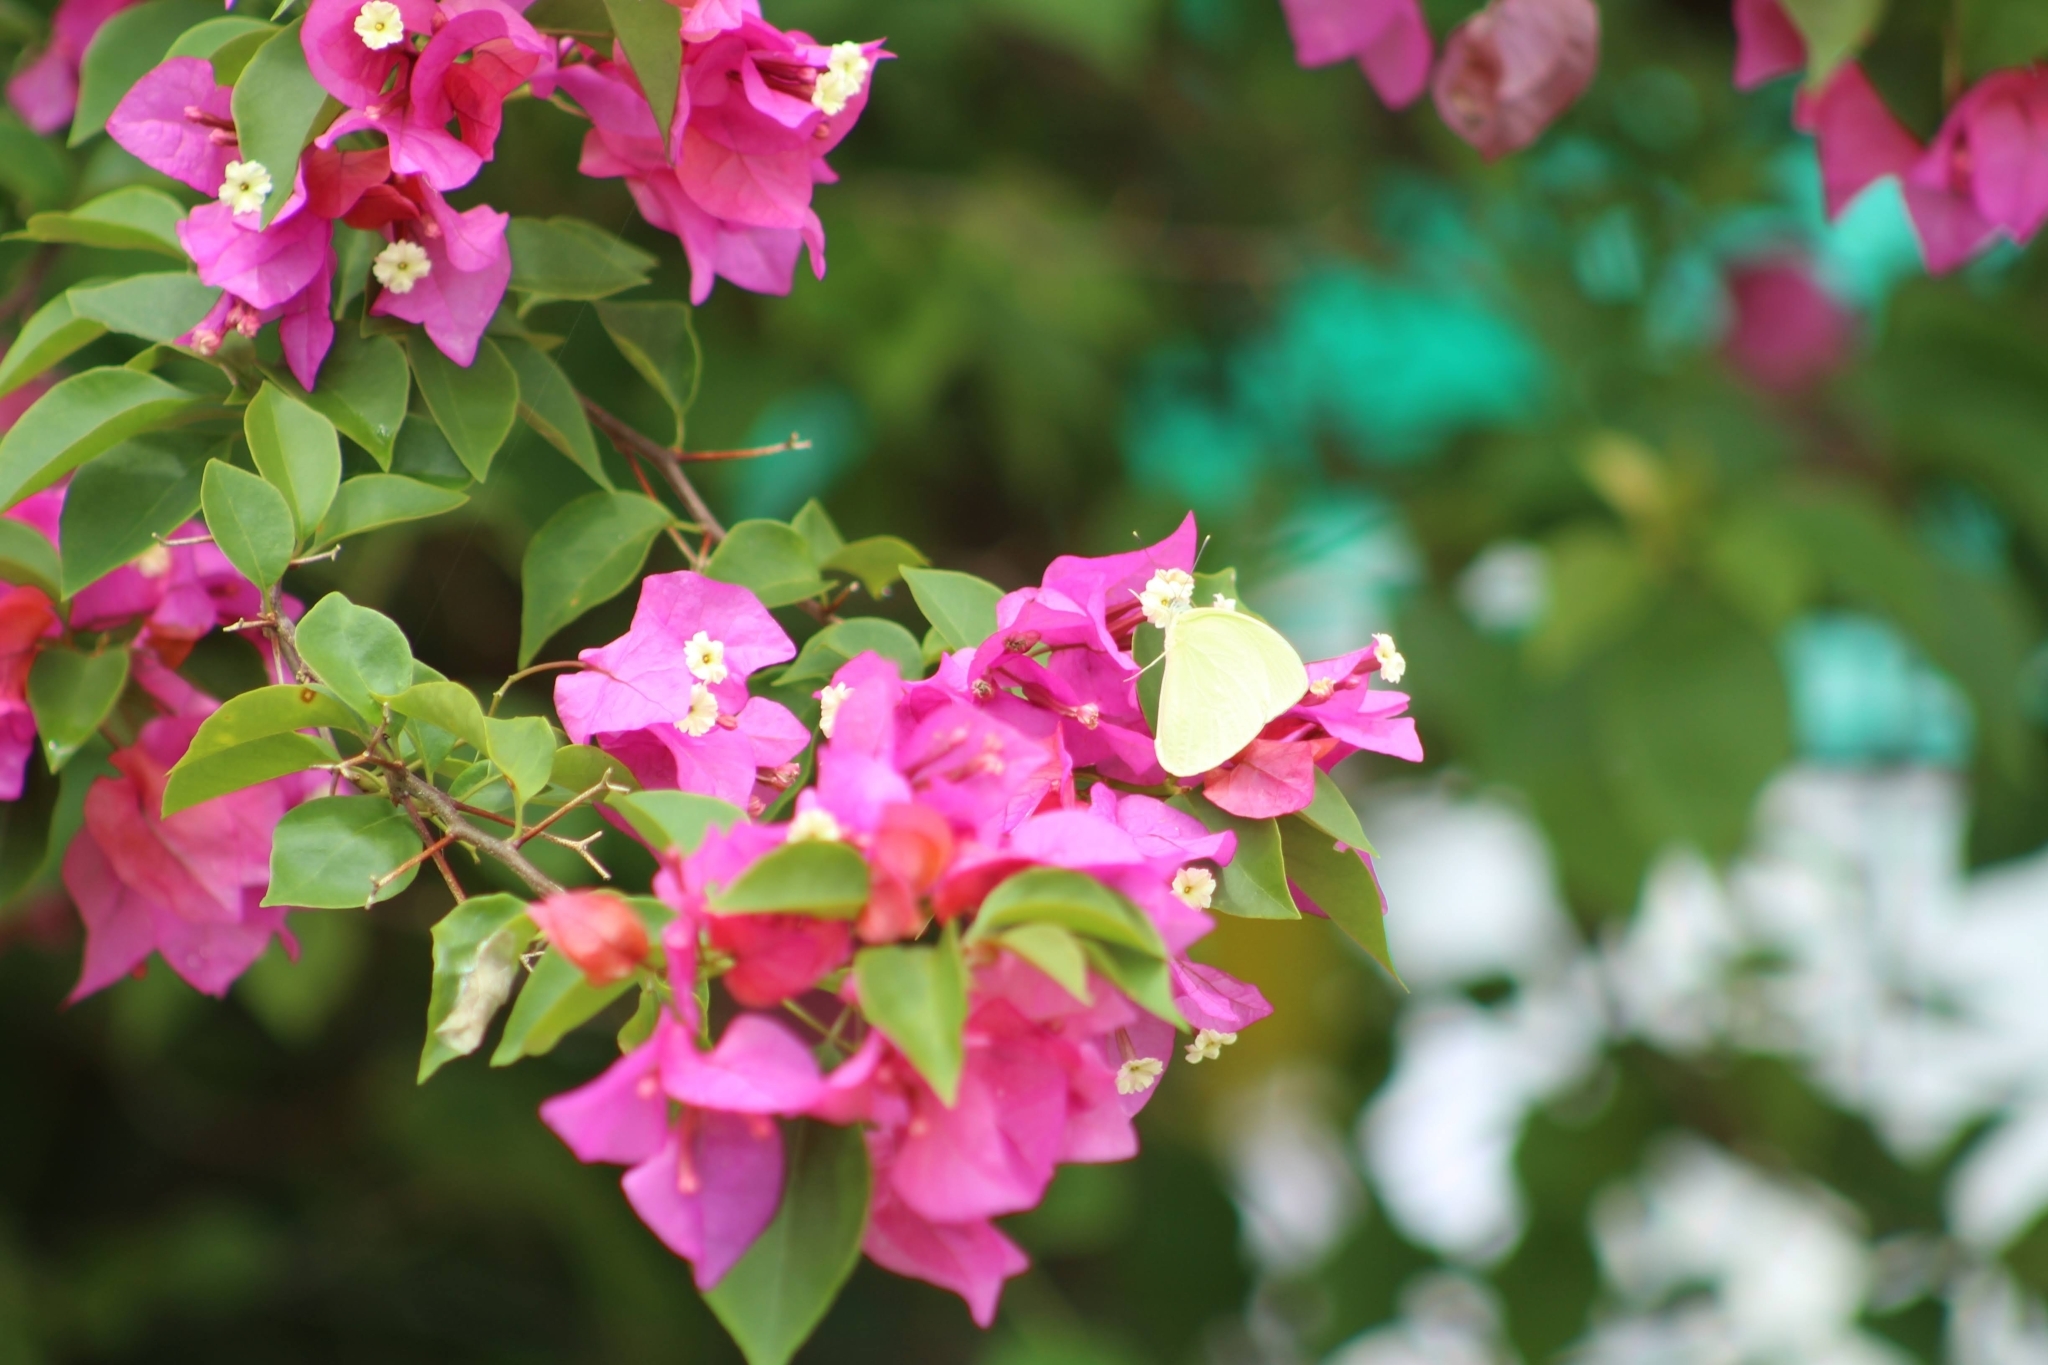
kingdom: Animalia
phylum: Arthropoda
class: Insecta
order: Lepidoptera
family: Pieridae
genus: Phoebis
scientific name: Phoebis argante
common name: Apricot sulphur
